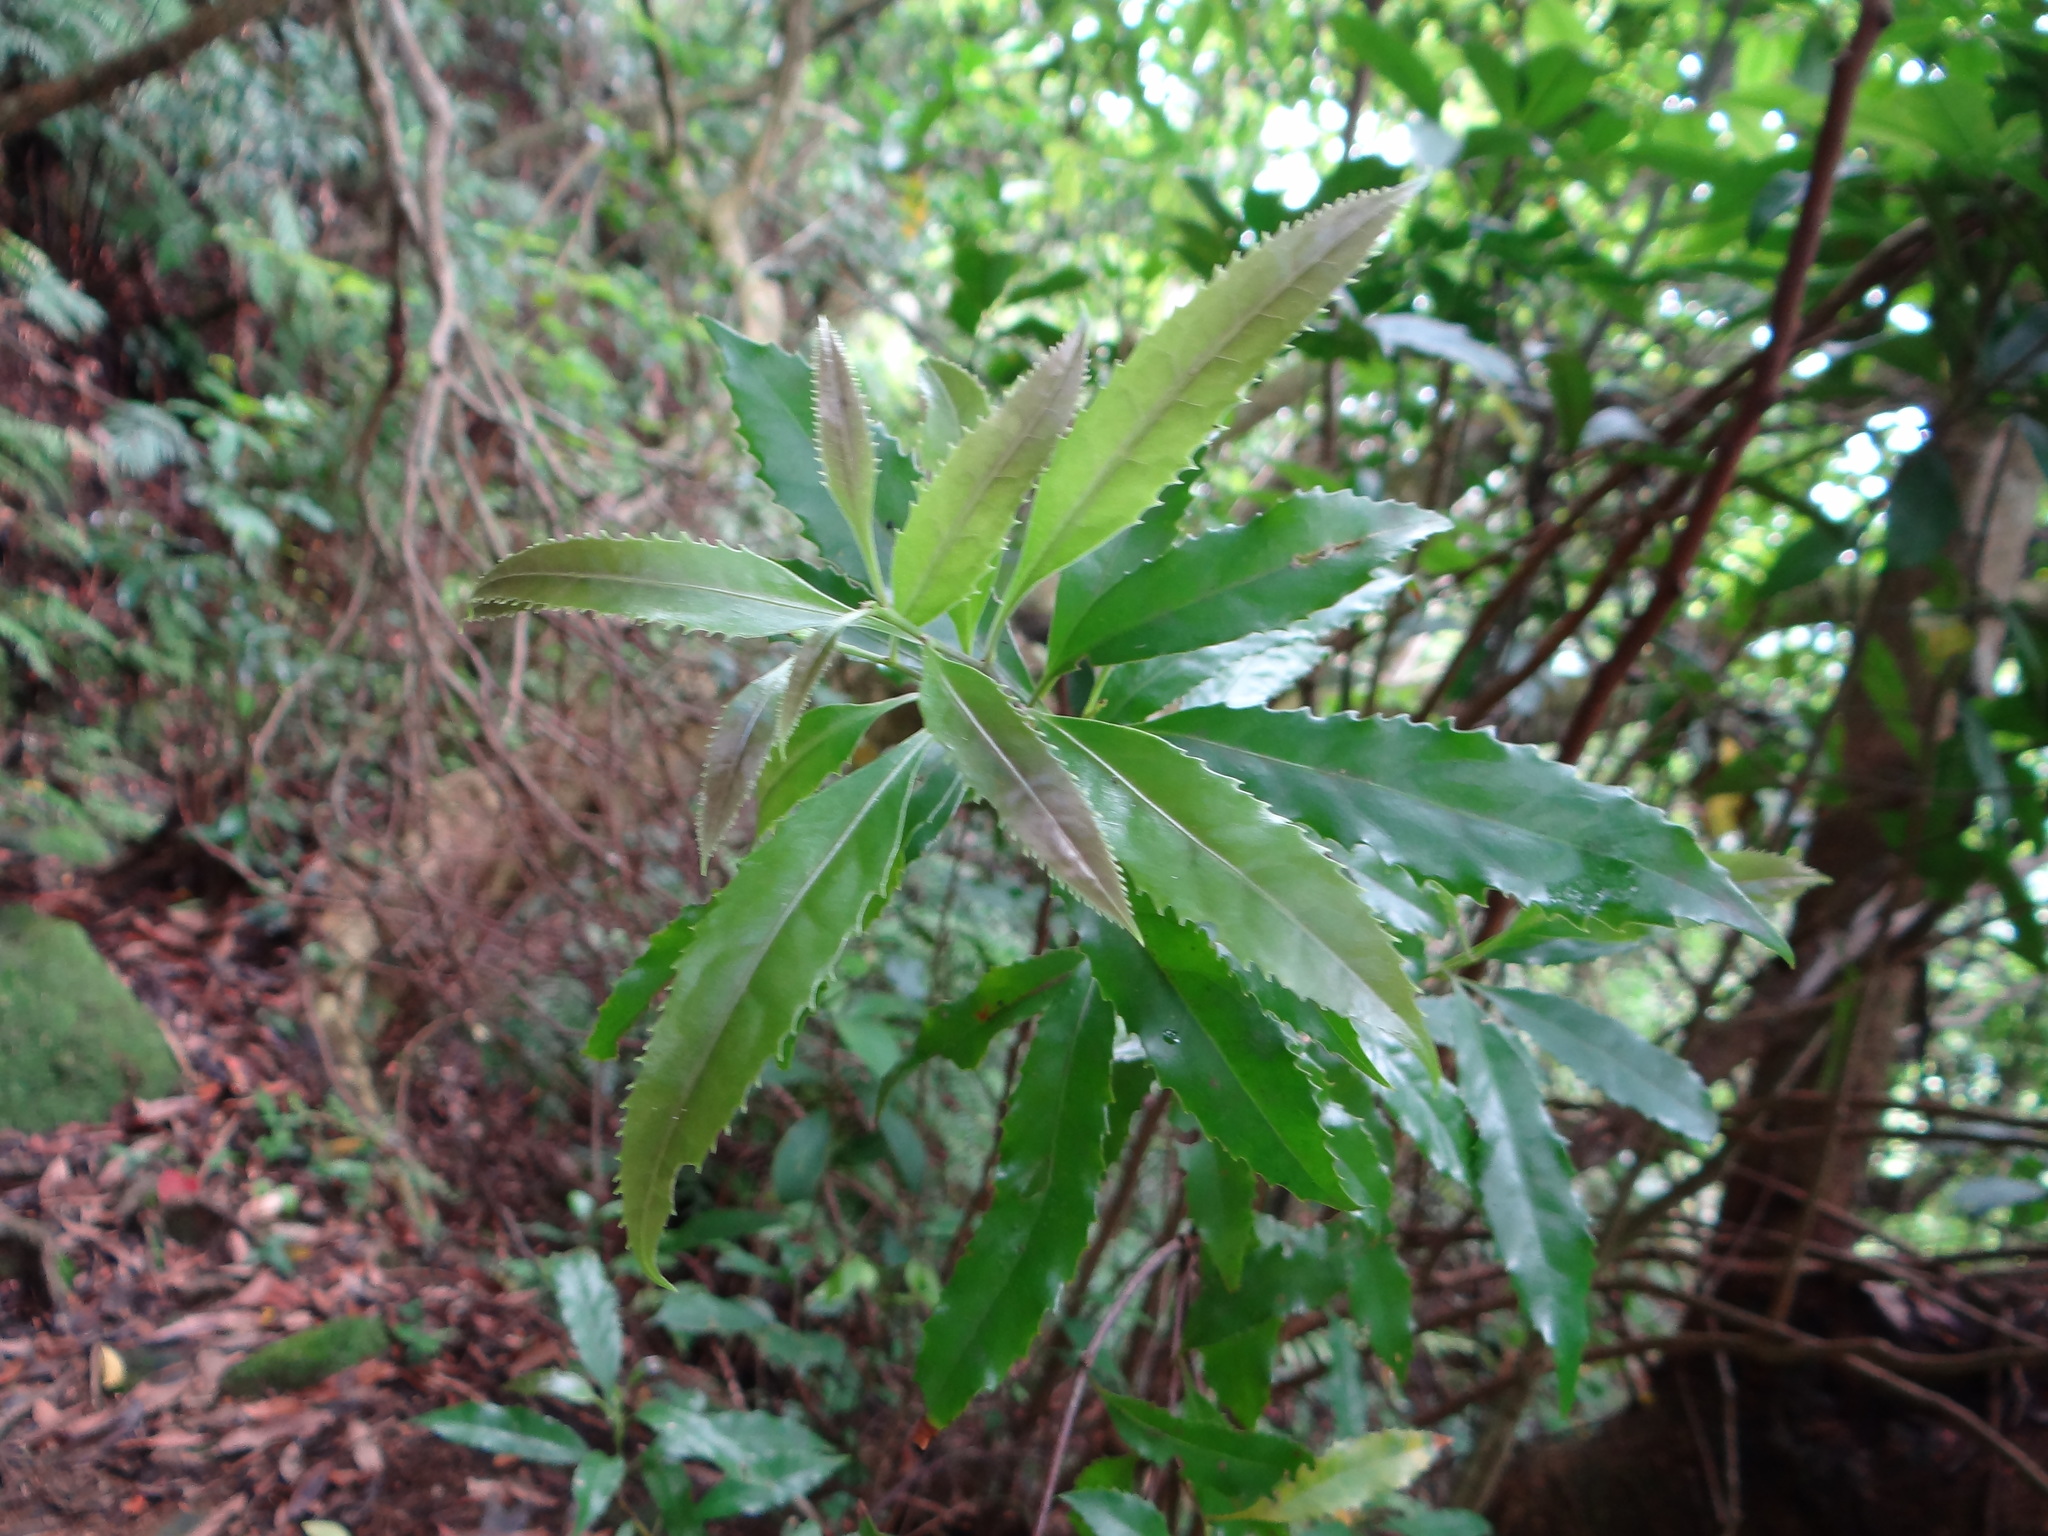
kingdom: Plantae
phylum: Tracheophyta
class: Magnoliopsida
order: Proteales
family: Proteaceae
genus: Helicia
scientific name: Helicia cochinchinensis
